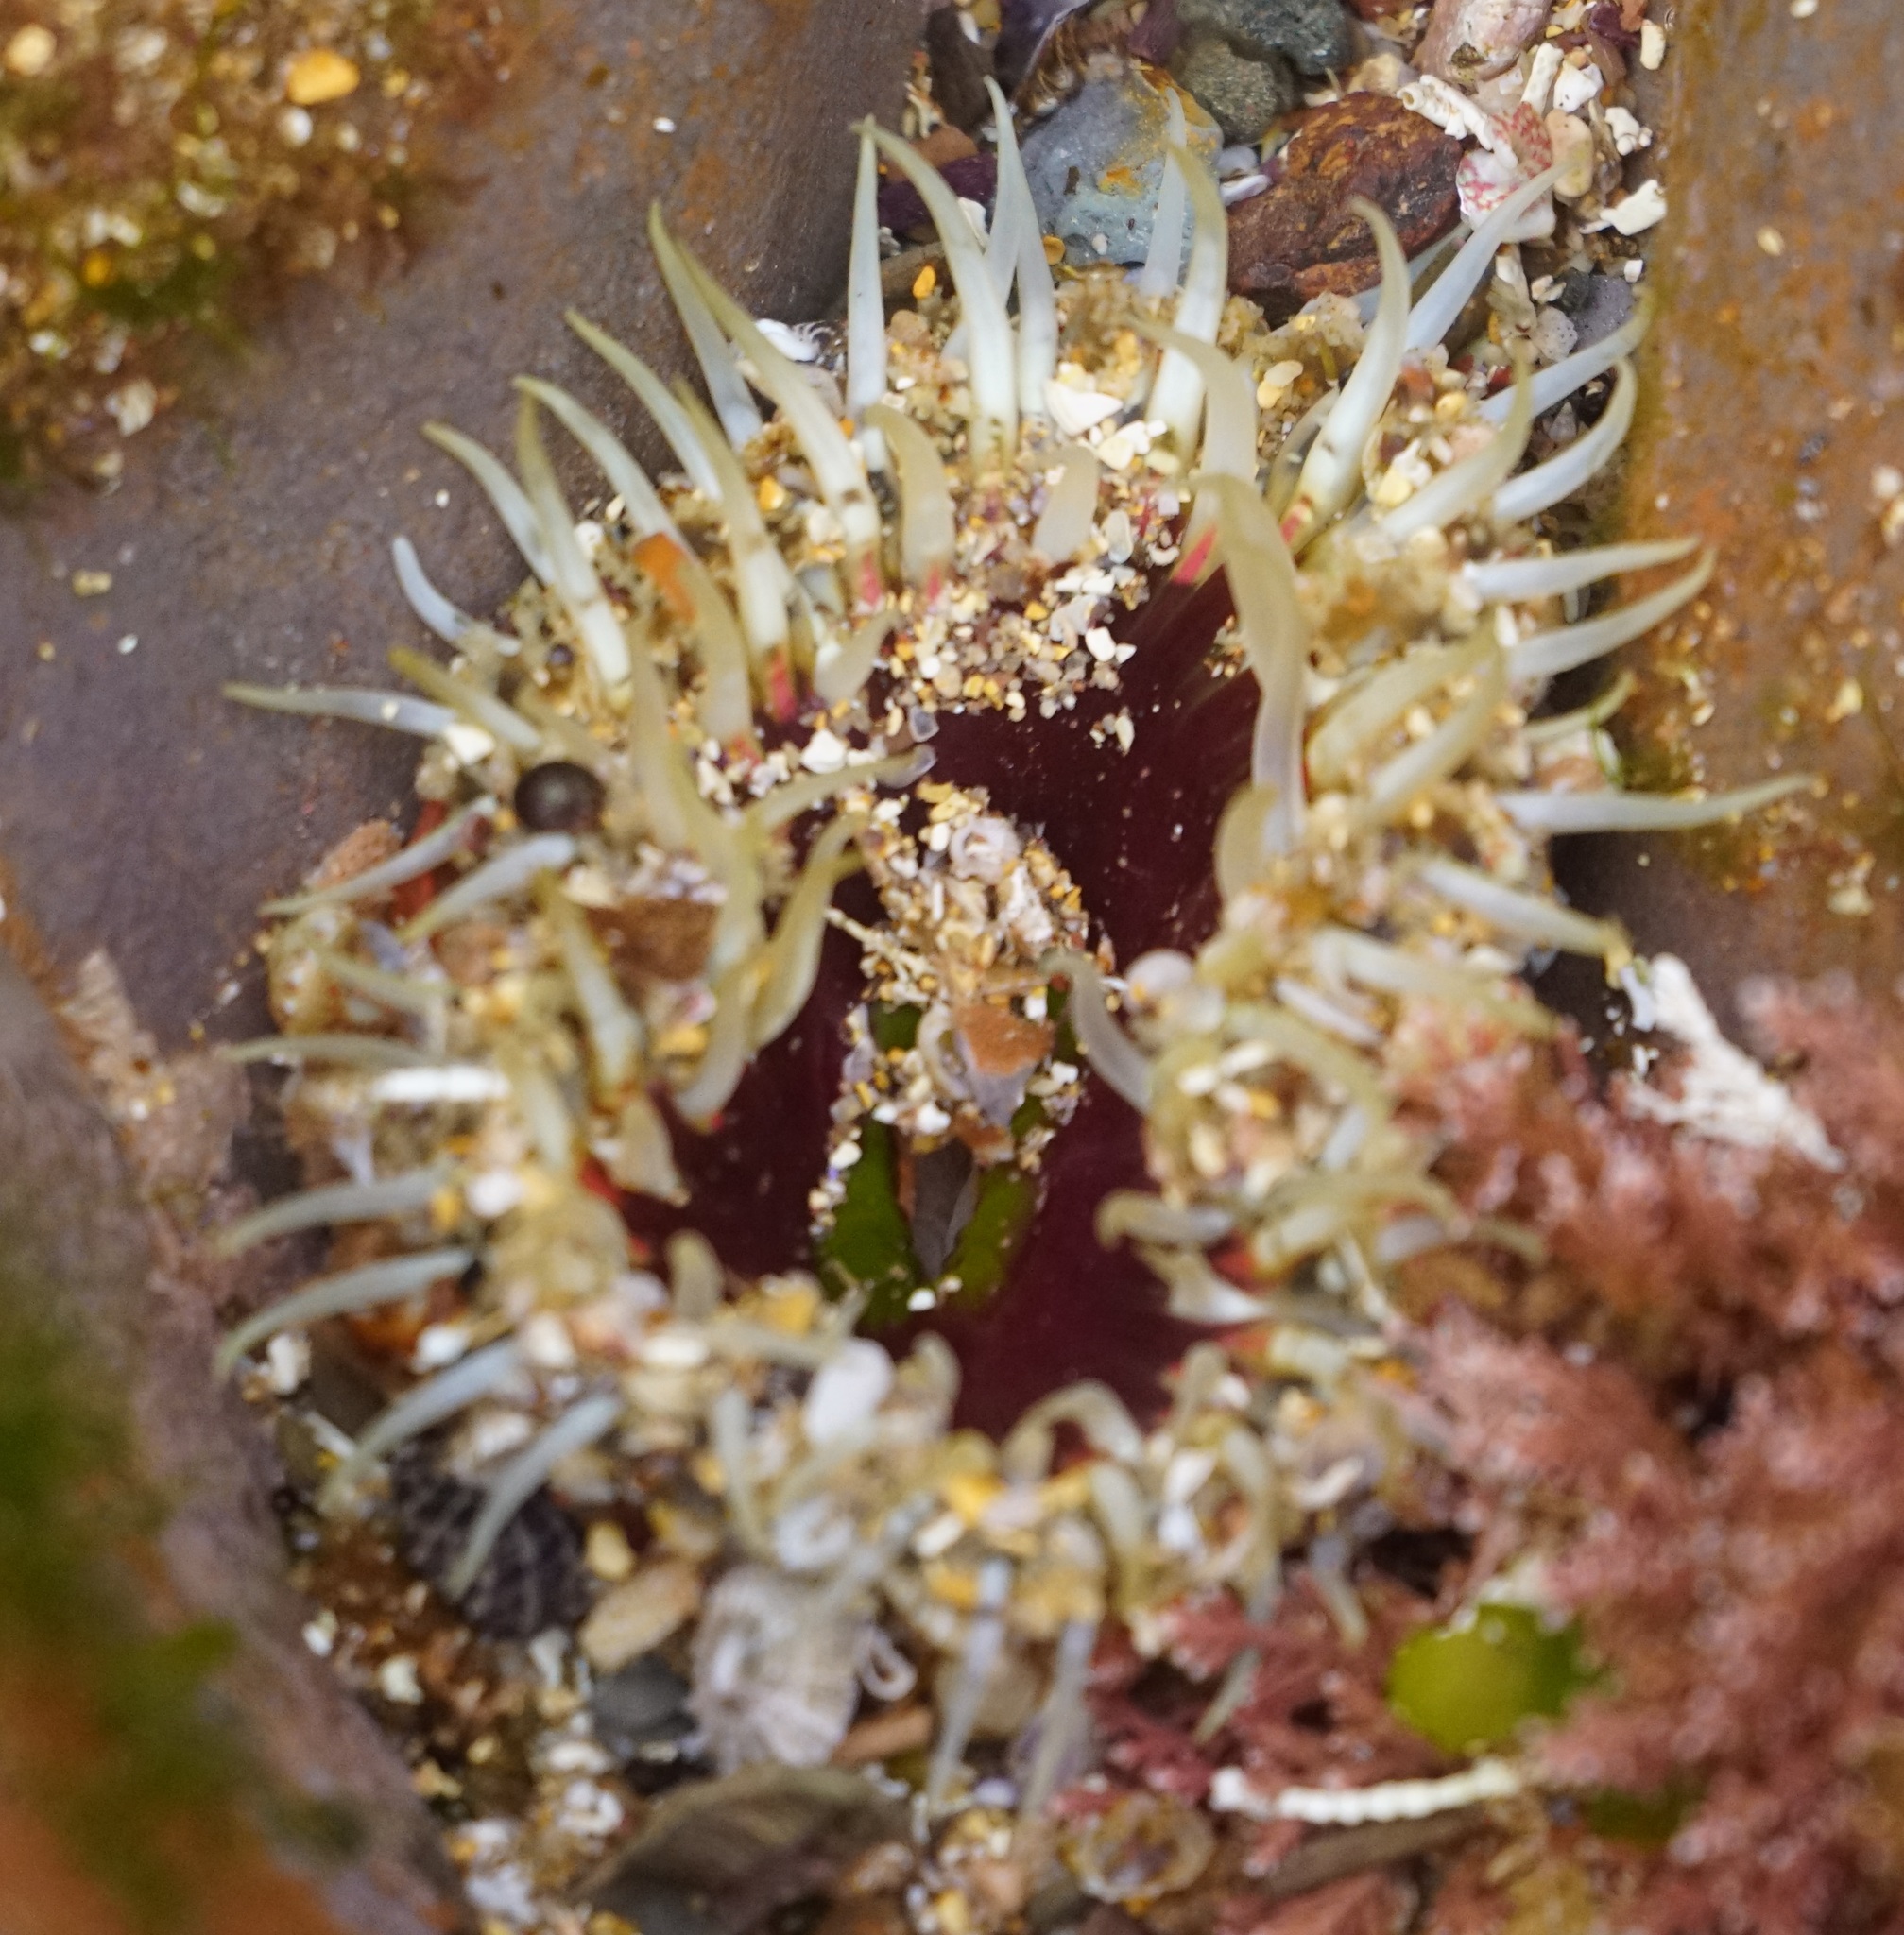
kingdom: Animalia
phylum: Cnidaria
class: Anthozoa
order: Actiniaria
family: Actiniidae
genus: Oulactis
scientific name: Oulactis muscosa
